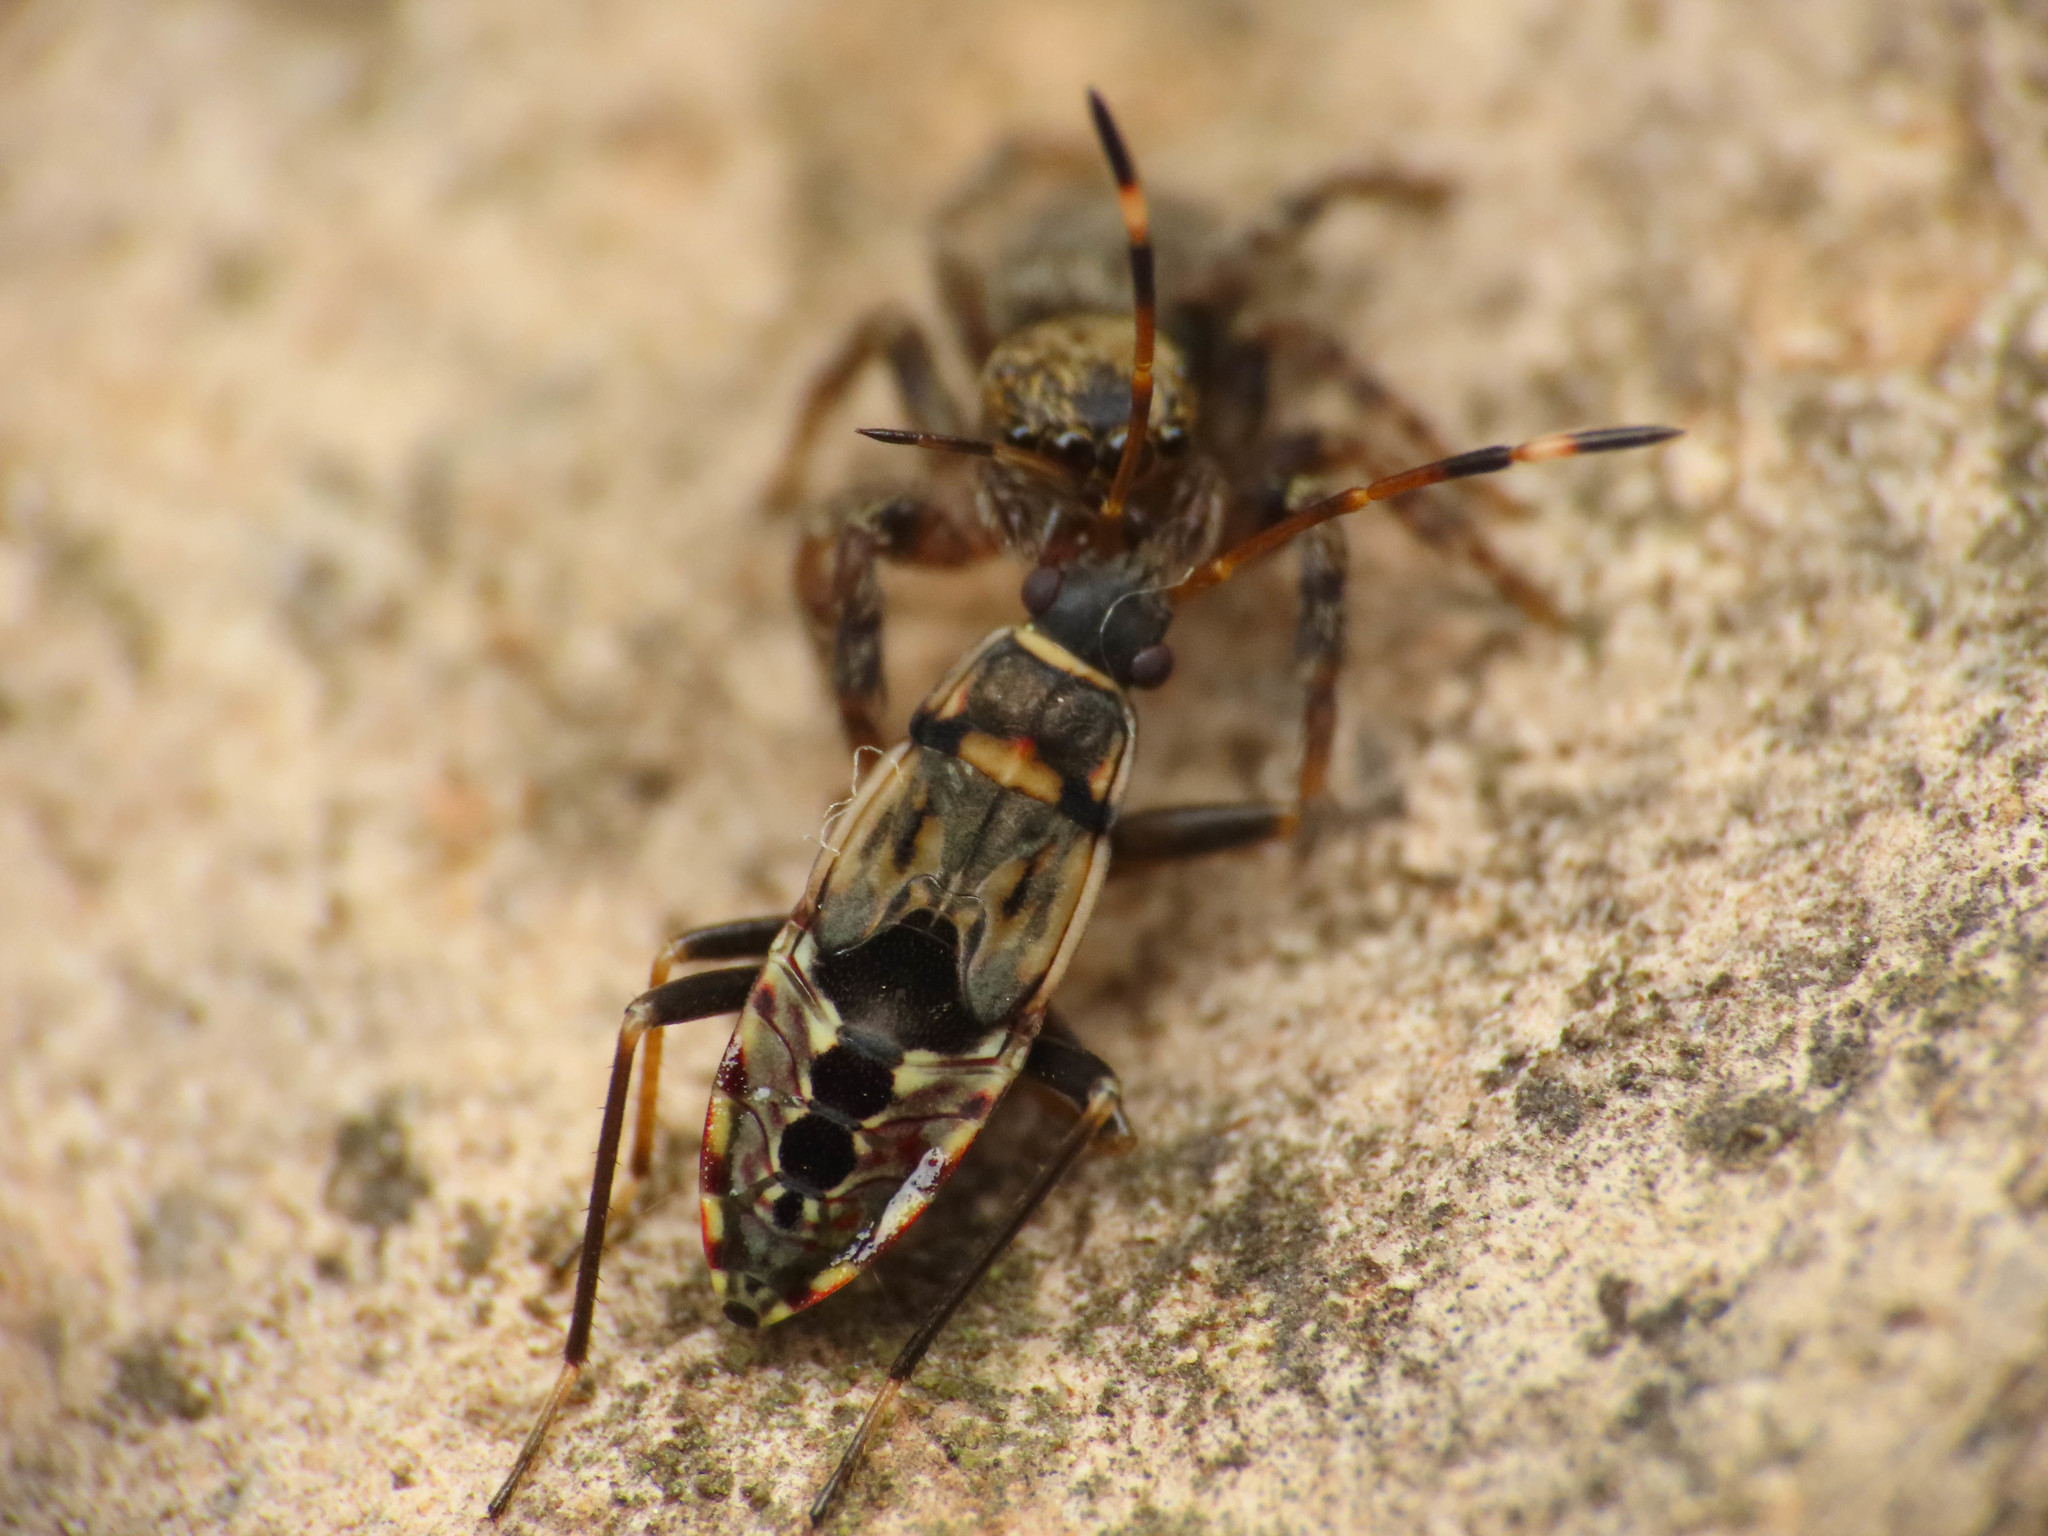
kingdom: Animalia
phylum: Arthropoda
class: Insecta
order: Hemiptera
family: Rhyparochromidae
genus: Beosus
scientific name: Beosus maritimus
